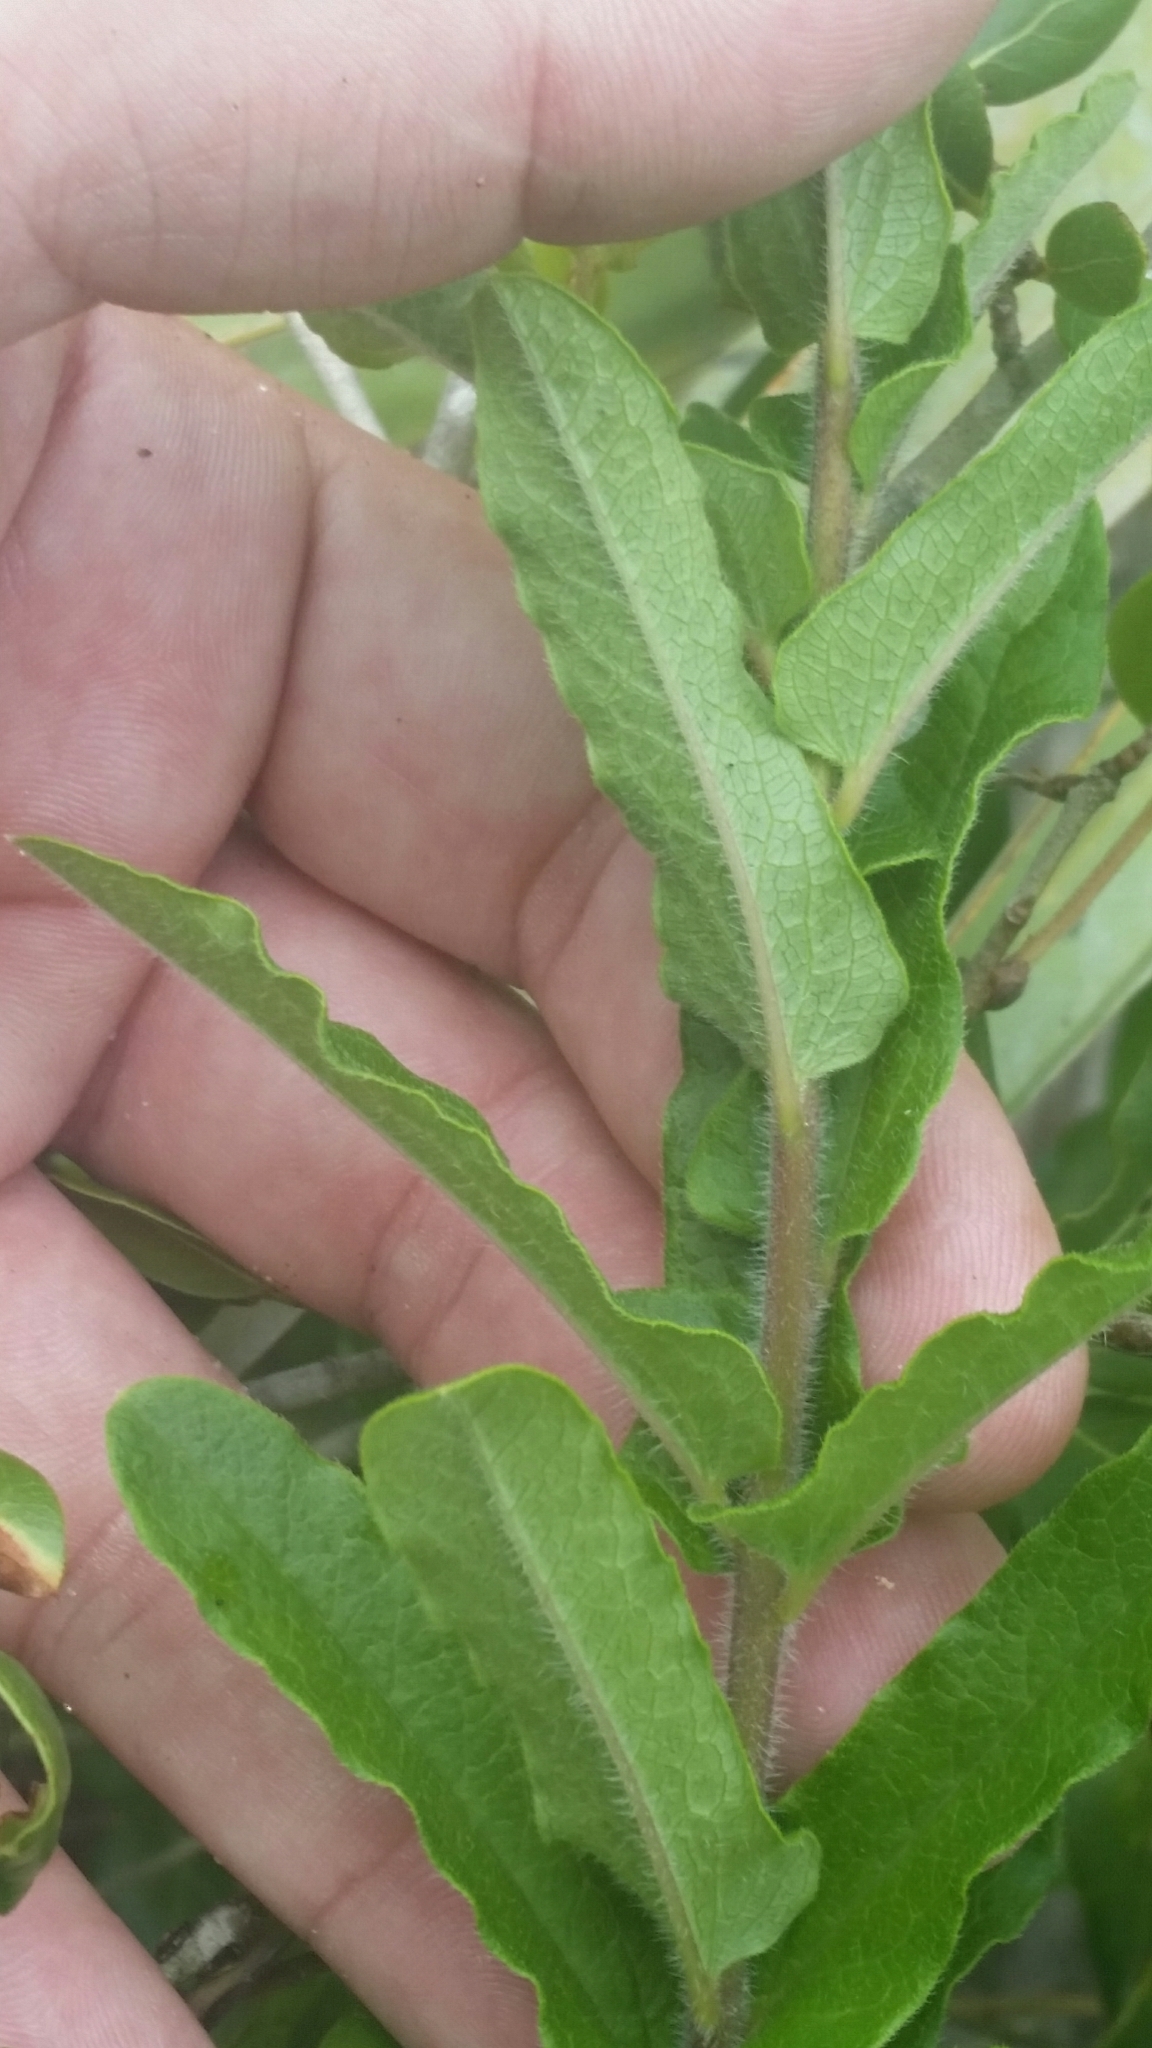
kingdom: Plantae
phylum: Tracheophyta
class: Magnoliopsida
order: Gentianales
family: Apocynaceae
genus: Asclepias
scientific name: Asclepias tuberosa
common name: Butterfly milkweed
